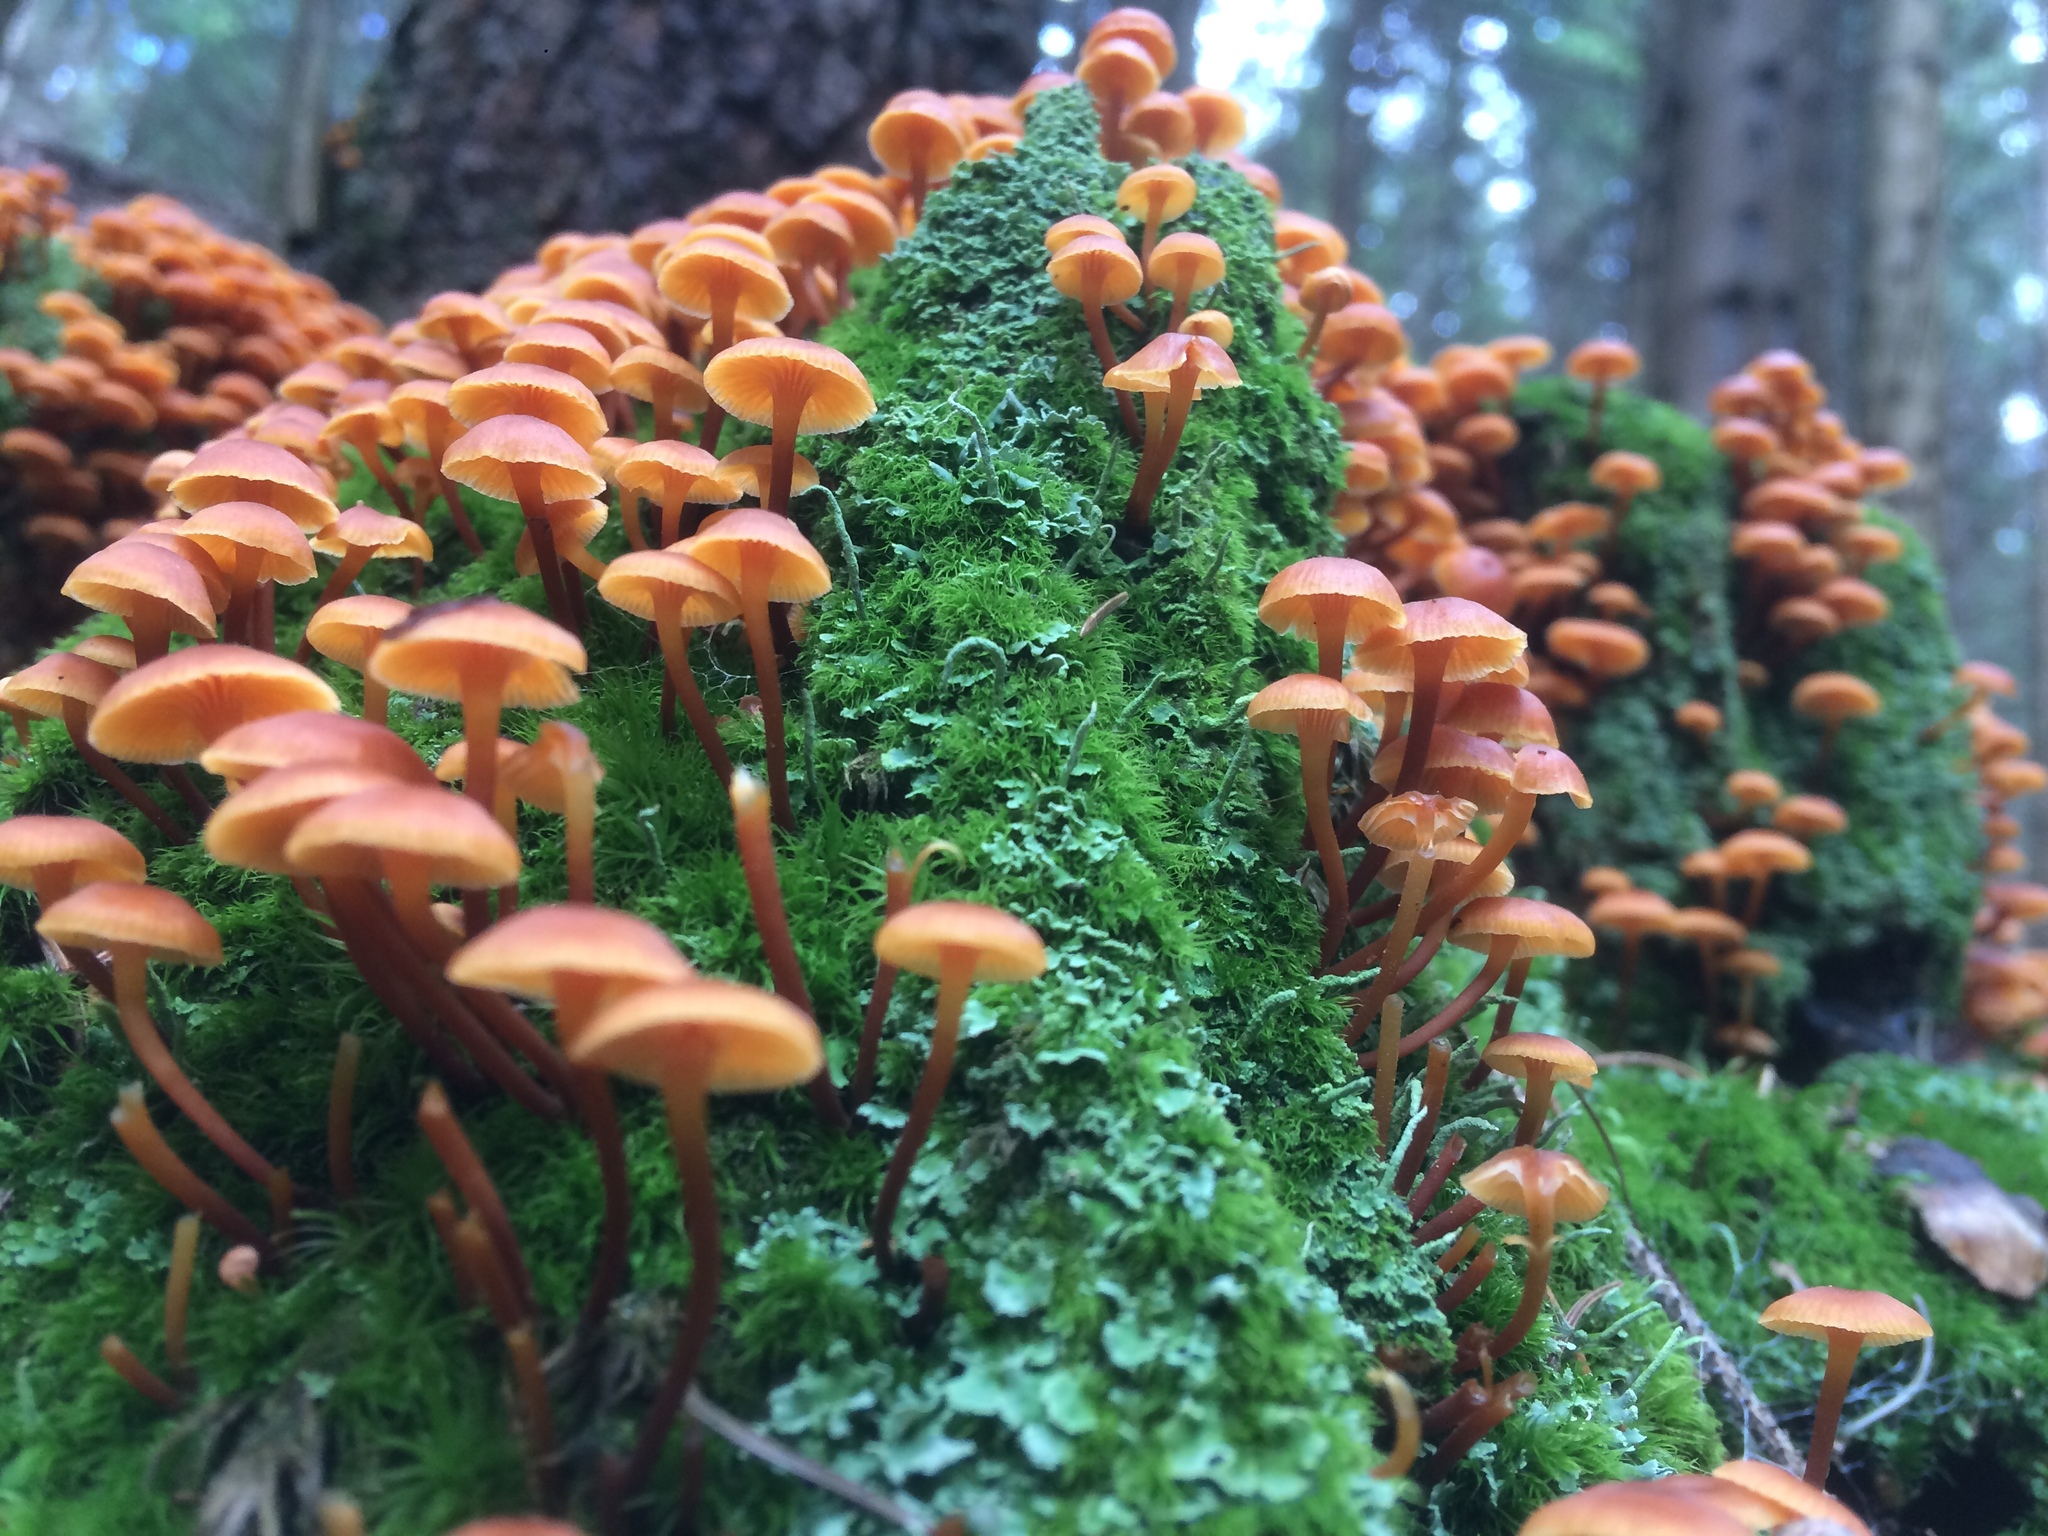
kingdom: Fungi
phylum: Basidiomycota
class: Agaricomycetes
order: Agaricales
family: Mycenaceae
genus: Xeromphalina
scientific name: Xeromphalina campanella
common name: Pinewood gingertail
